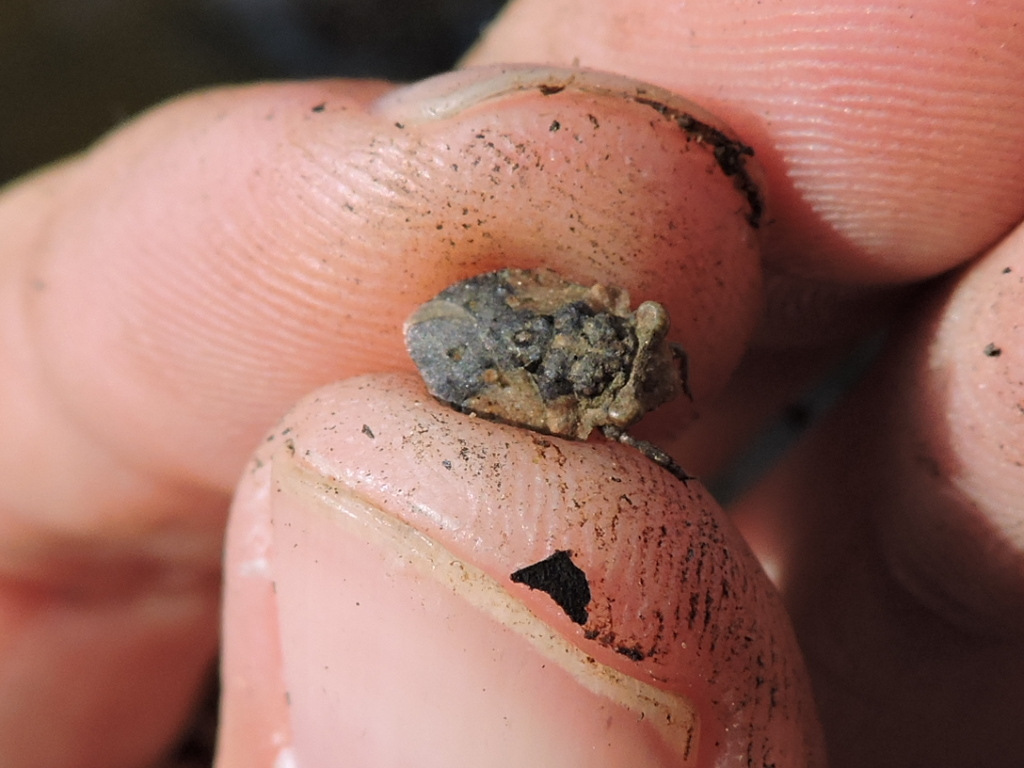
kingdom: Animalia
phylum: Arthropoda
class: Insecta
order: Hemiptera
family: Gelastocoridae
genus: Gelastocoris
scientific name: Gelastocoris oculatus
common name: Toad bug
